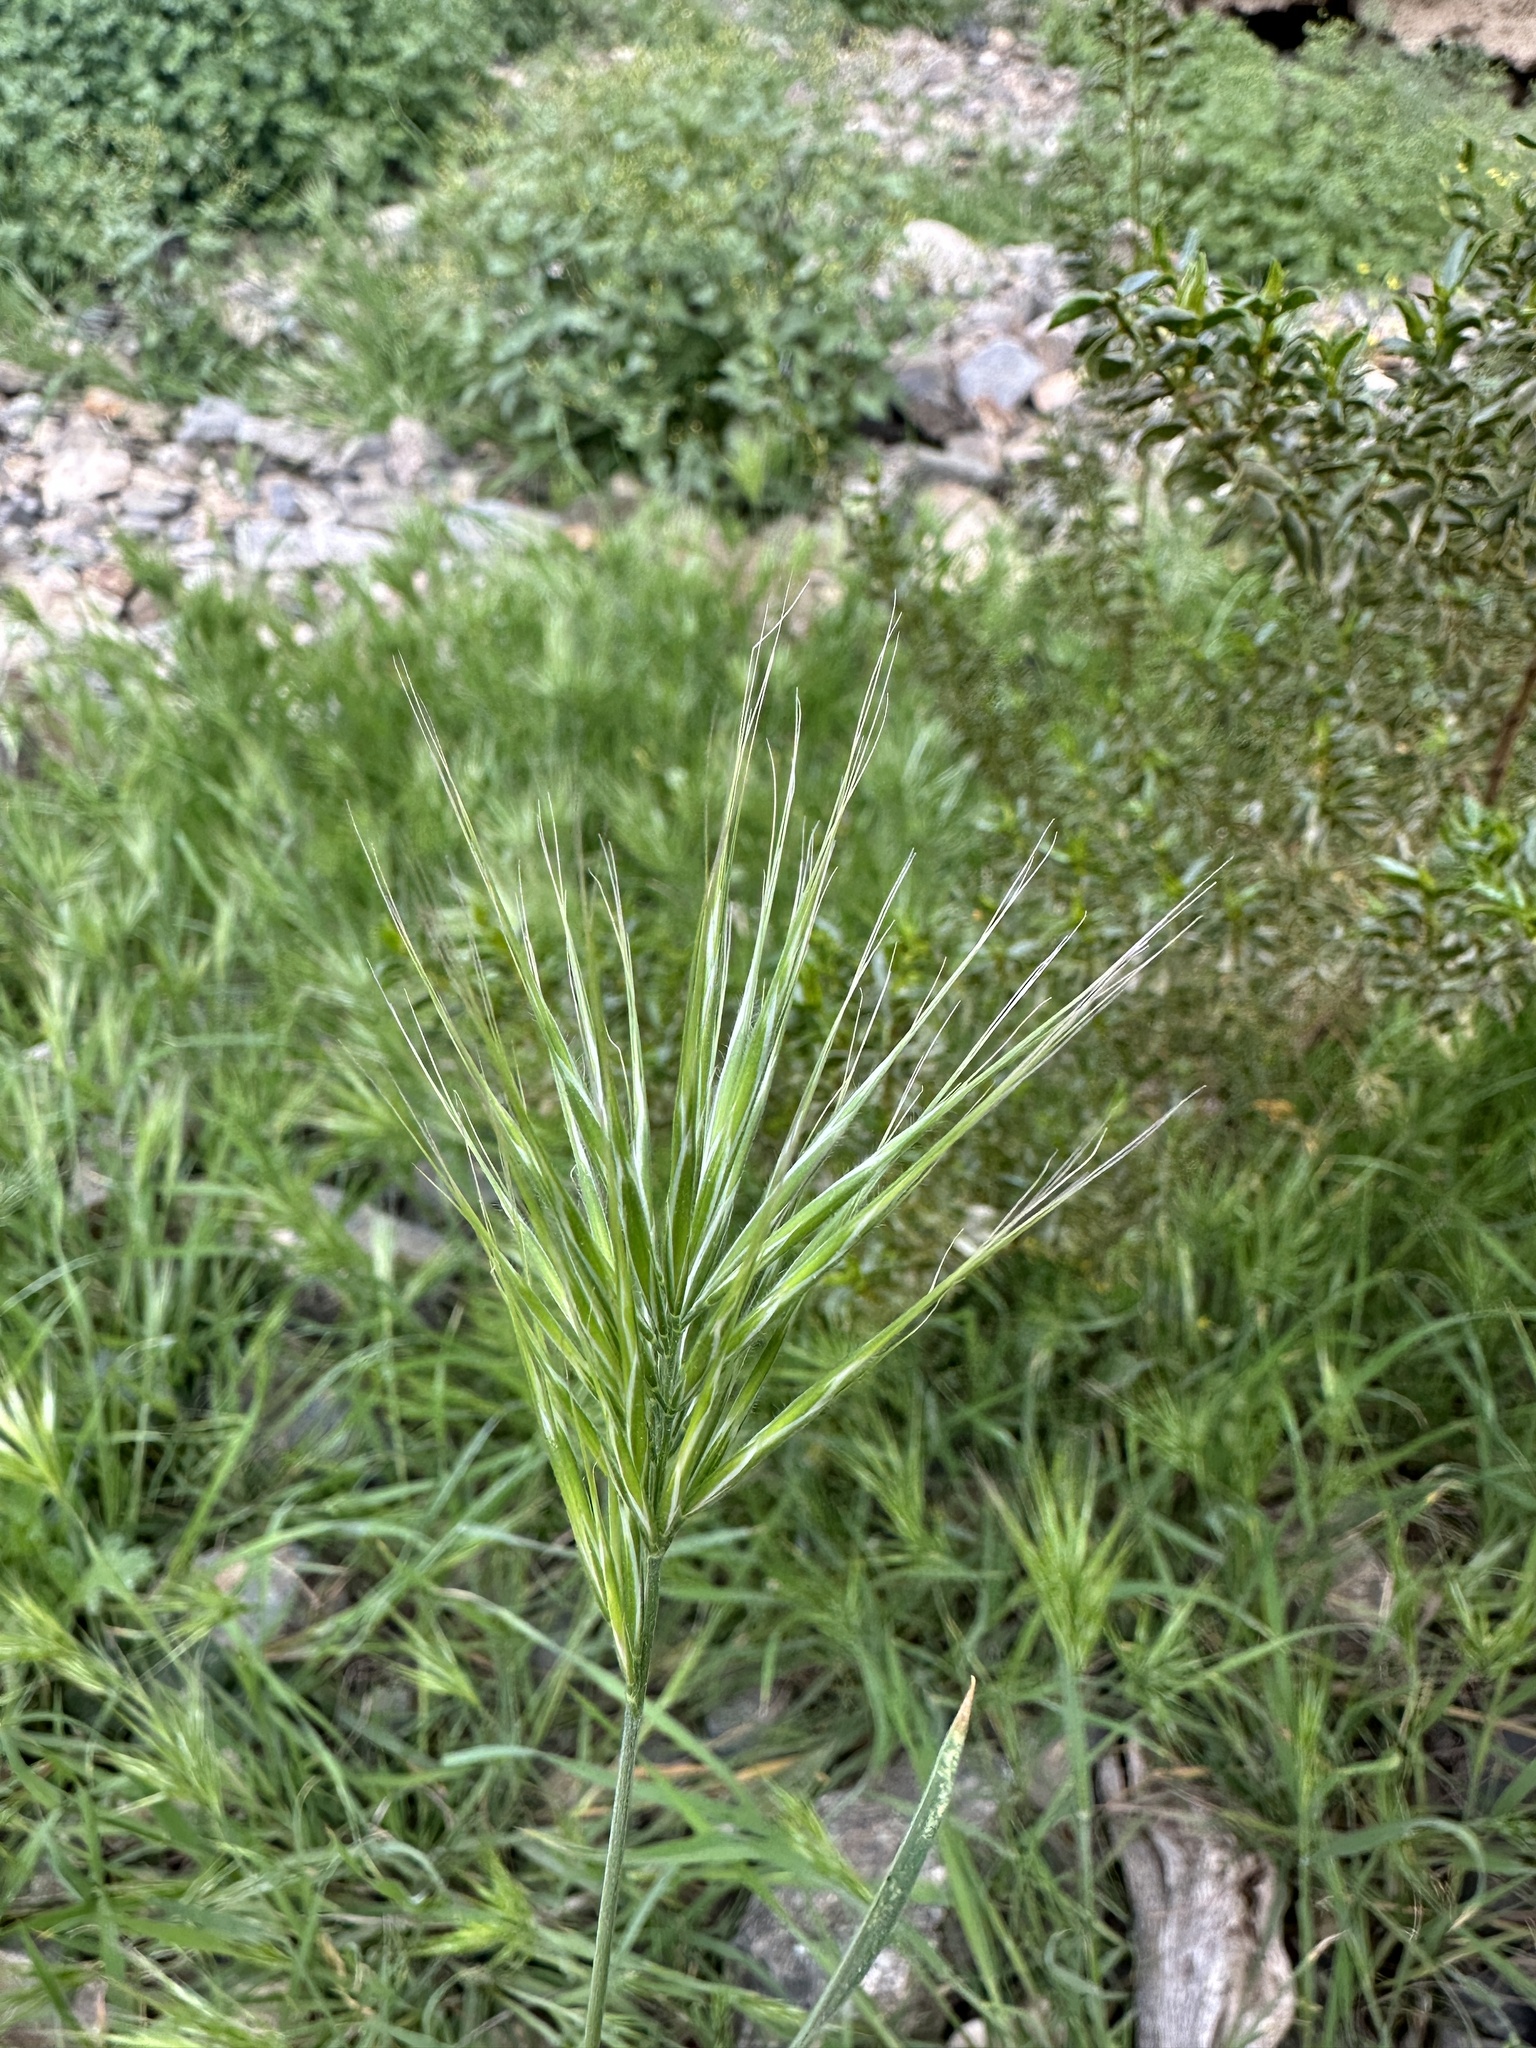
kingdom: Plantae
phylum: Tracheophyta
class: Liliopsida
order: Poales
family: Poaceae
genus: Bromus
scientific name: Bromus rubens
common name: Red brome
